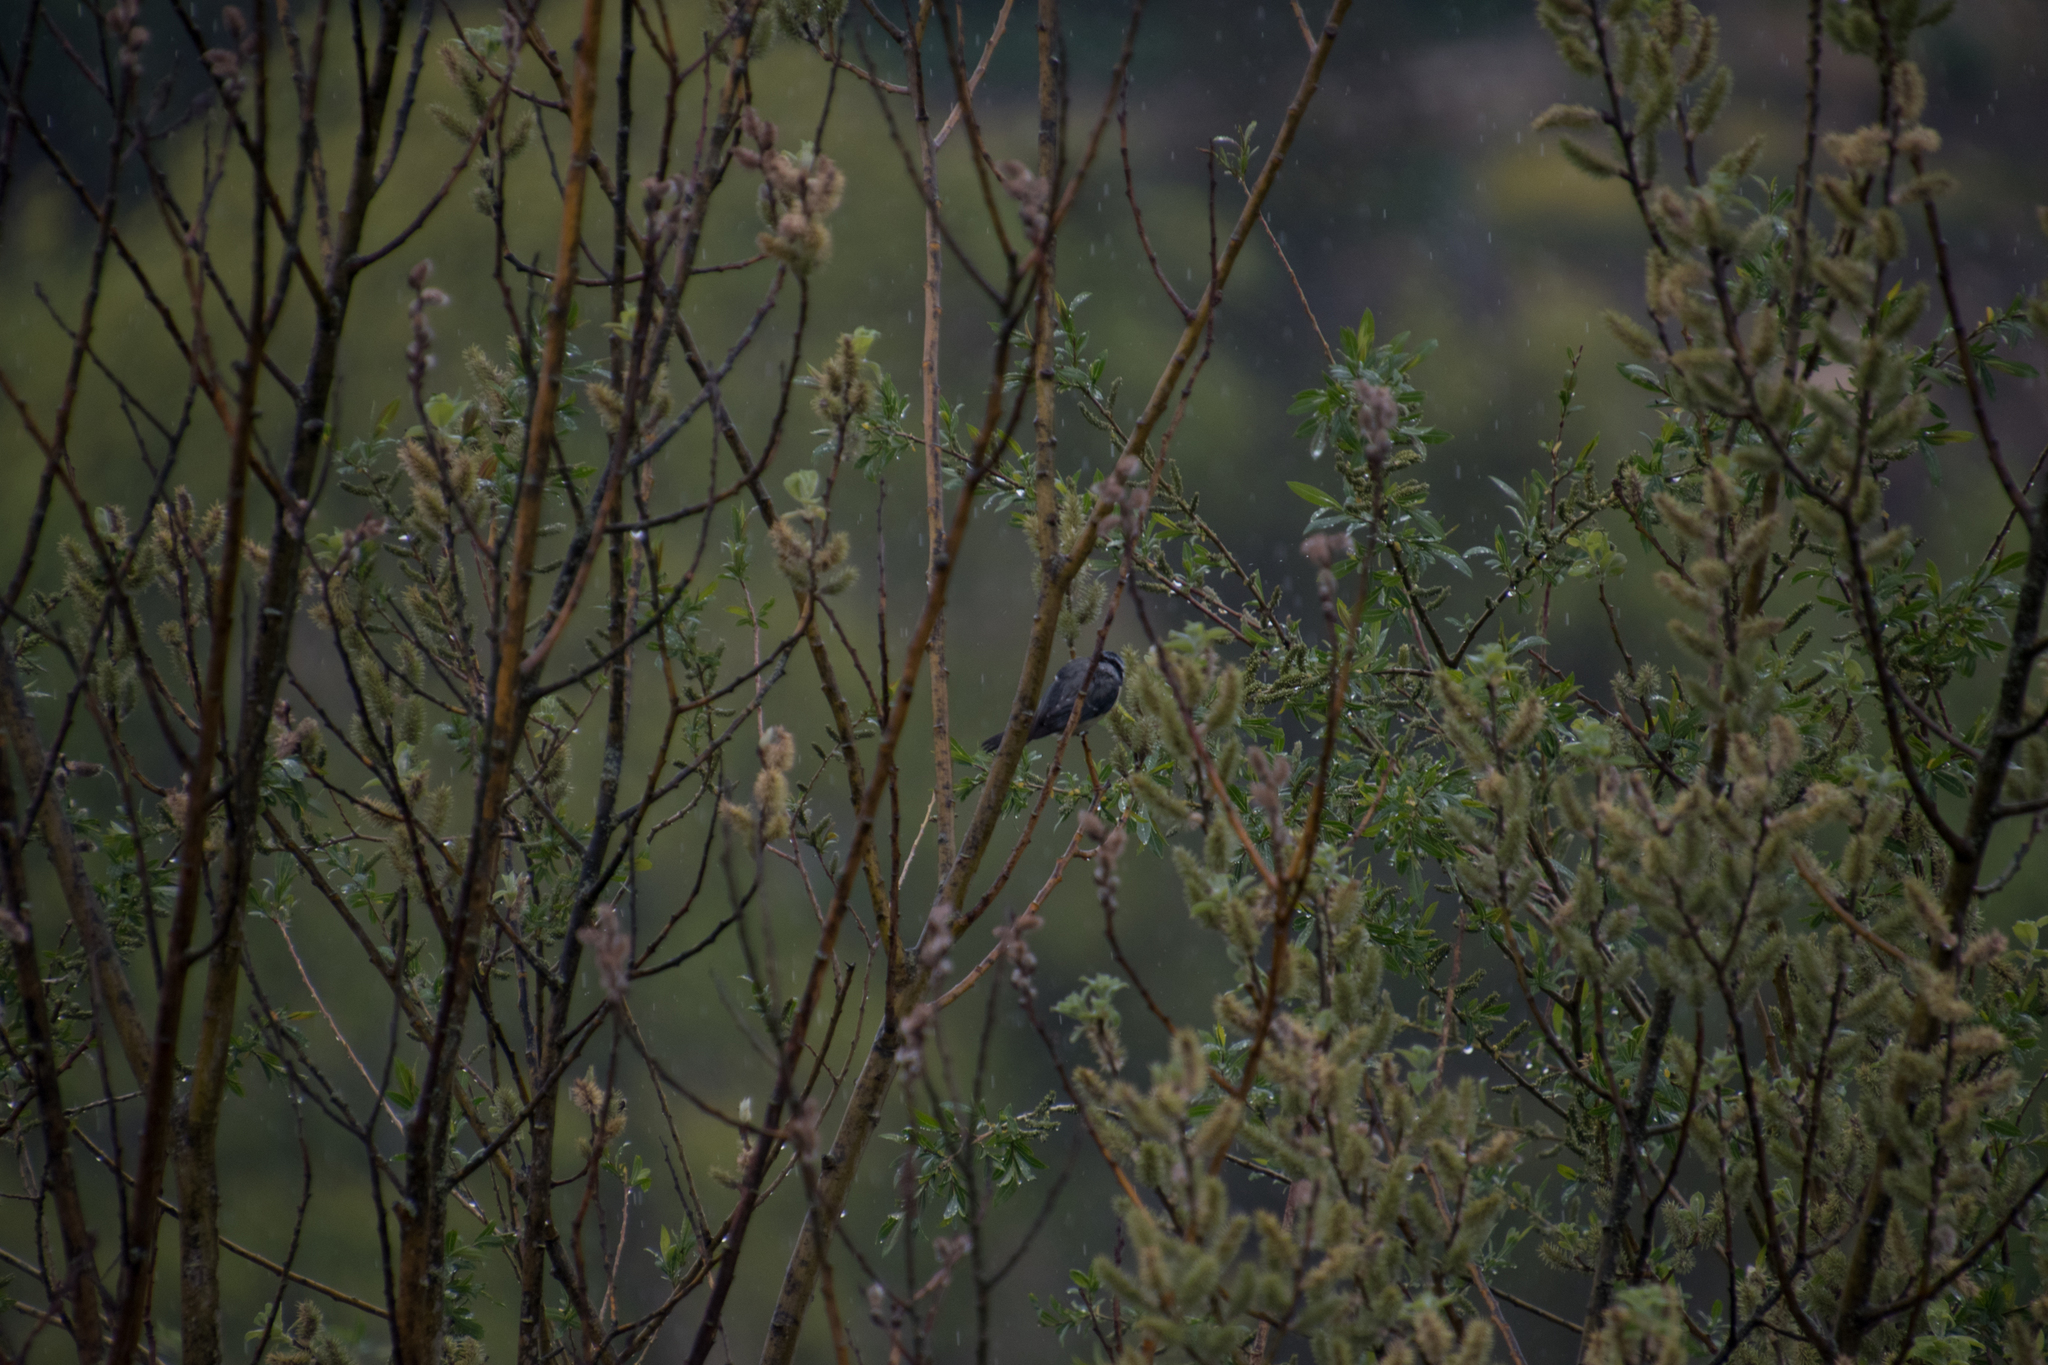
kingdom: Animalia
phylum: Chordata
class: Aves
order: Passeriformes
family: Paridae
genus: Cyanistes
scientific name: Cyanistes caeruleus
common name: Eurasian blue tit
